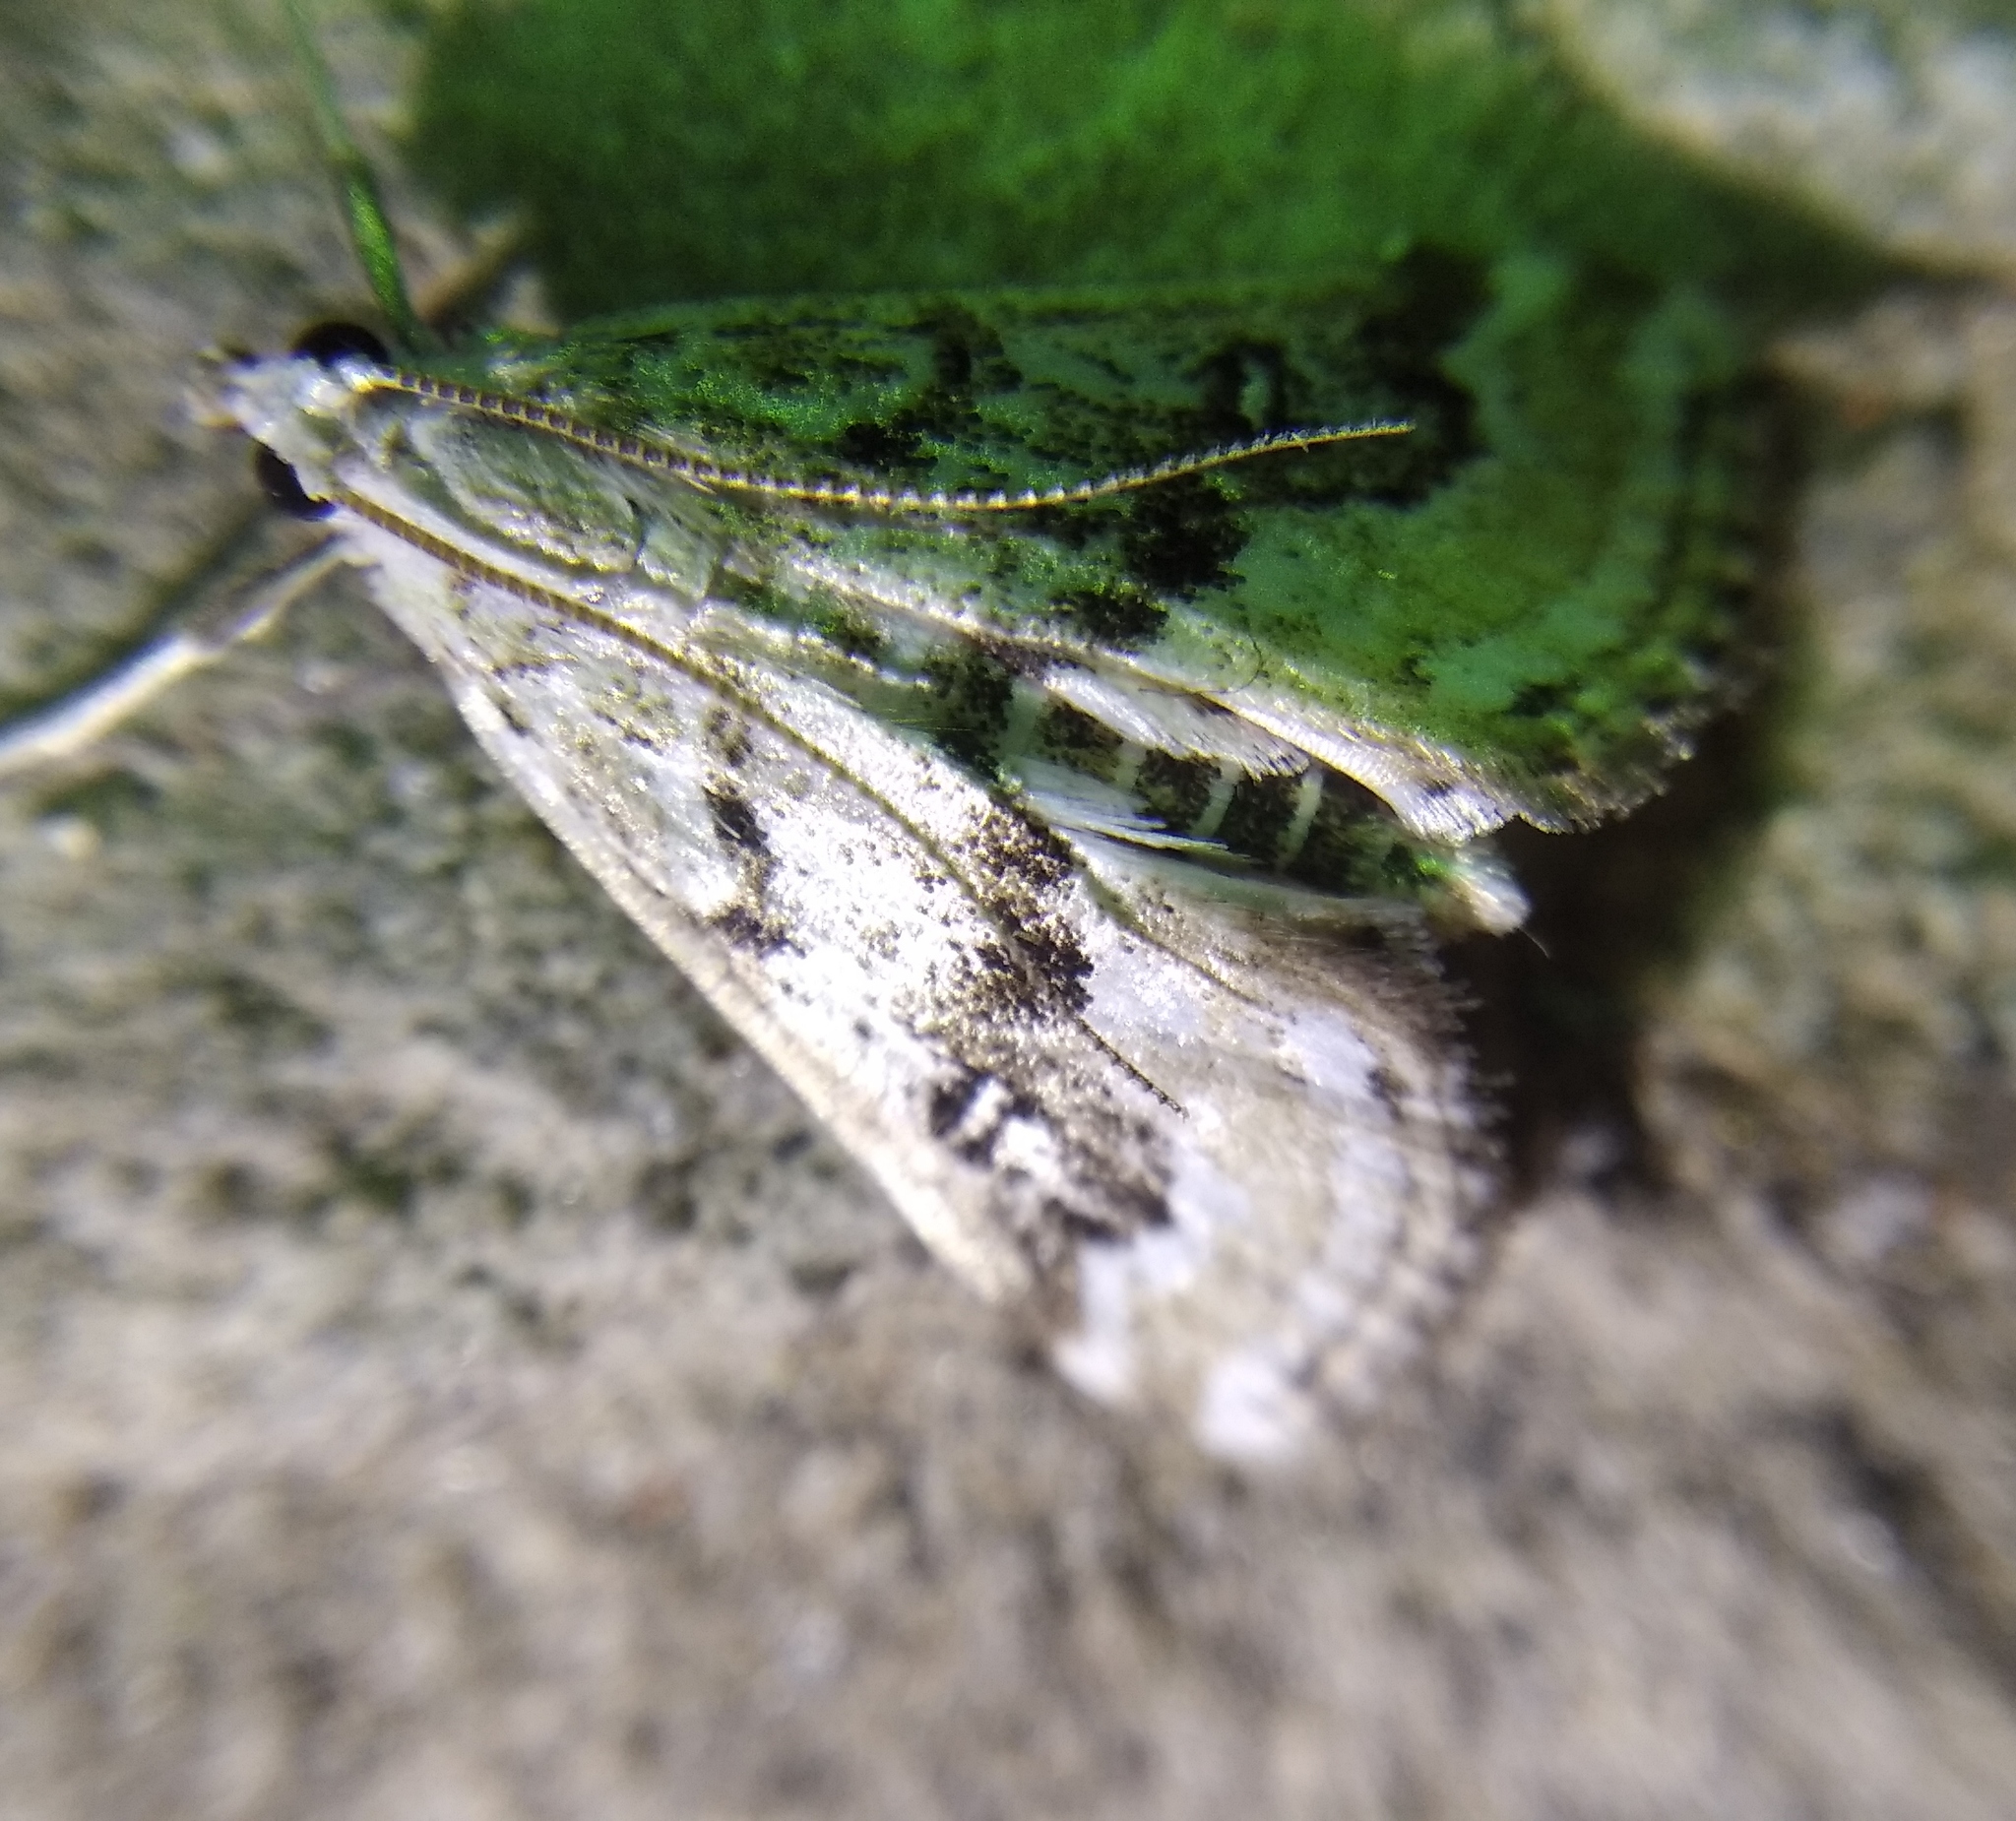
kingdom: Animalia
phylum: Arthropoda
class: Insecta
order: Lepidoptera
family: Crambidae
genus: Parapoynx
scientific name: Parapoynx stratiotata
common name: Ringed china-mark
